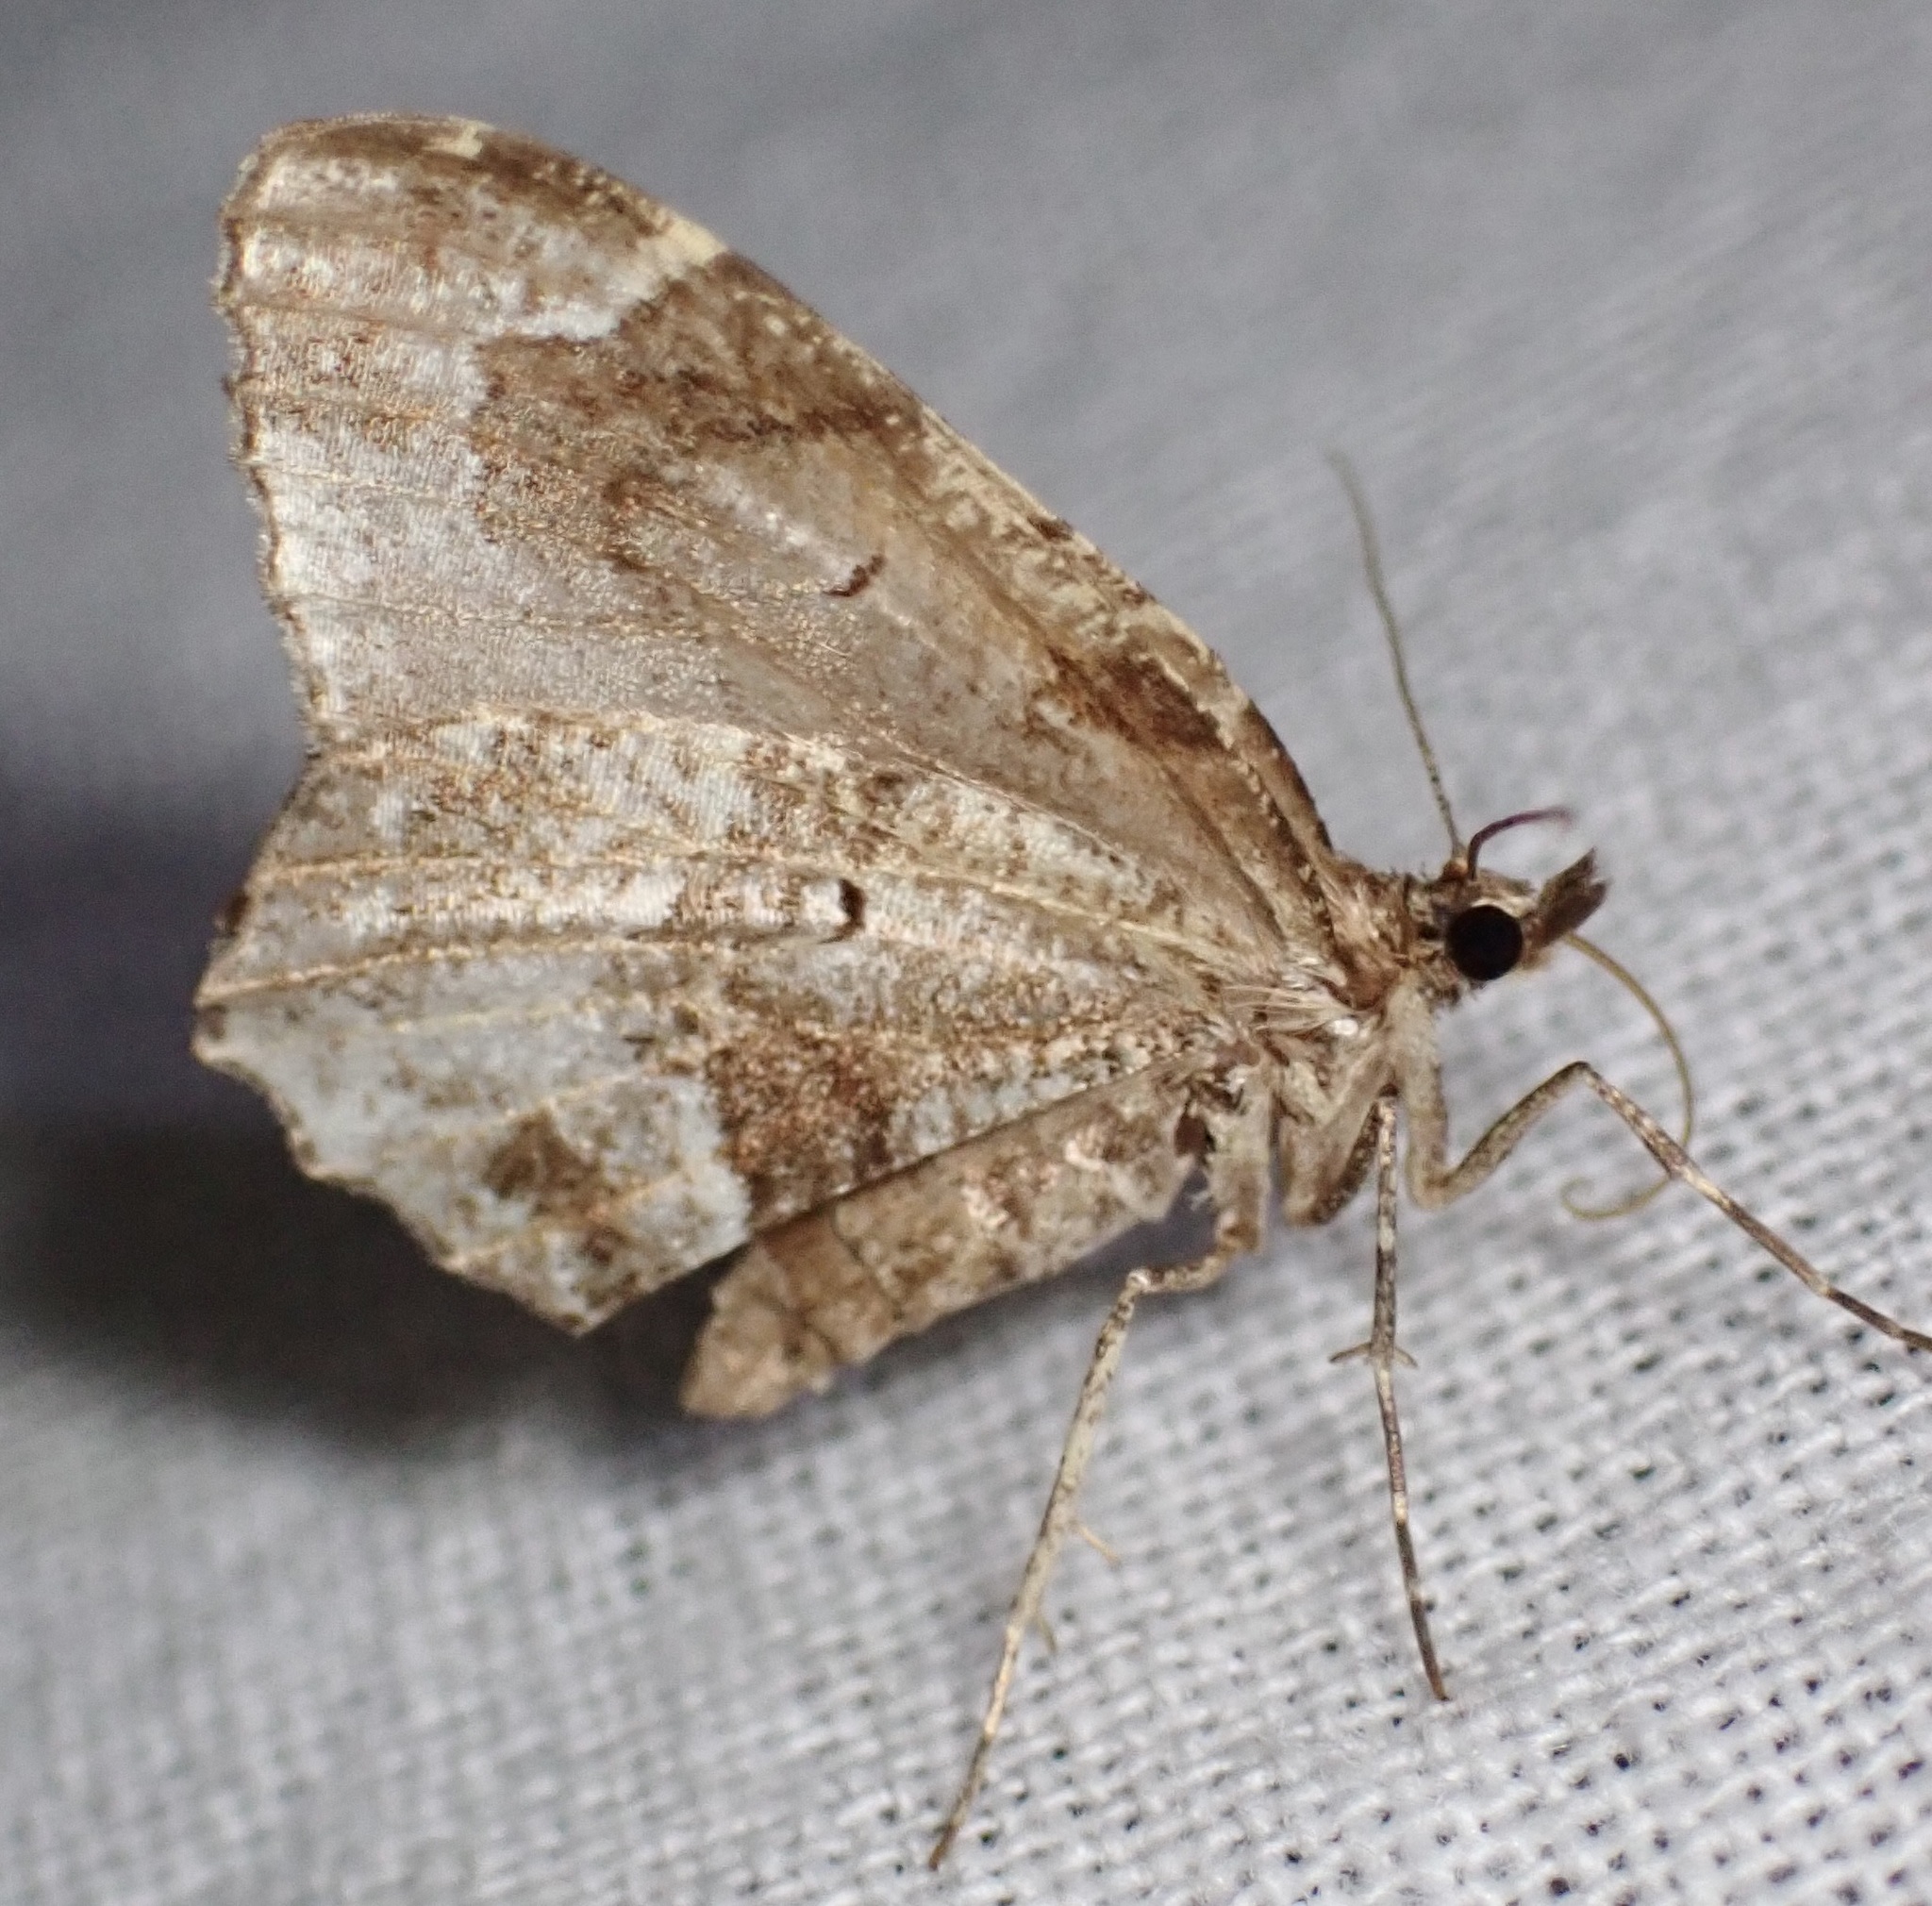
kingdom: Animalia
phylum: Arthropoda
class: Insecta
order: Lepidoptera
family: Geometridae
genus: Ceratodalia
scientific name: Ceratodalia gueneata
